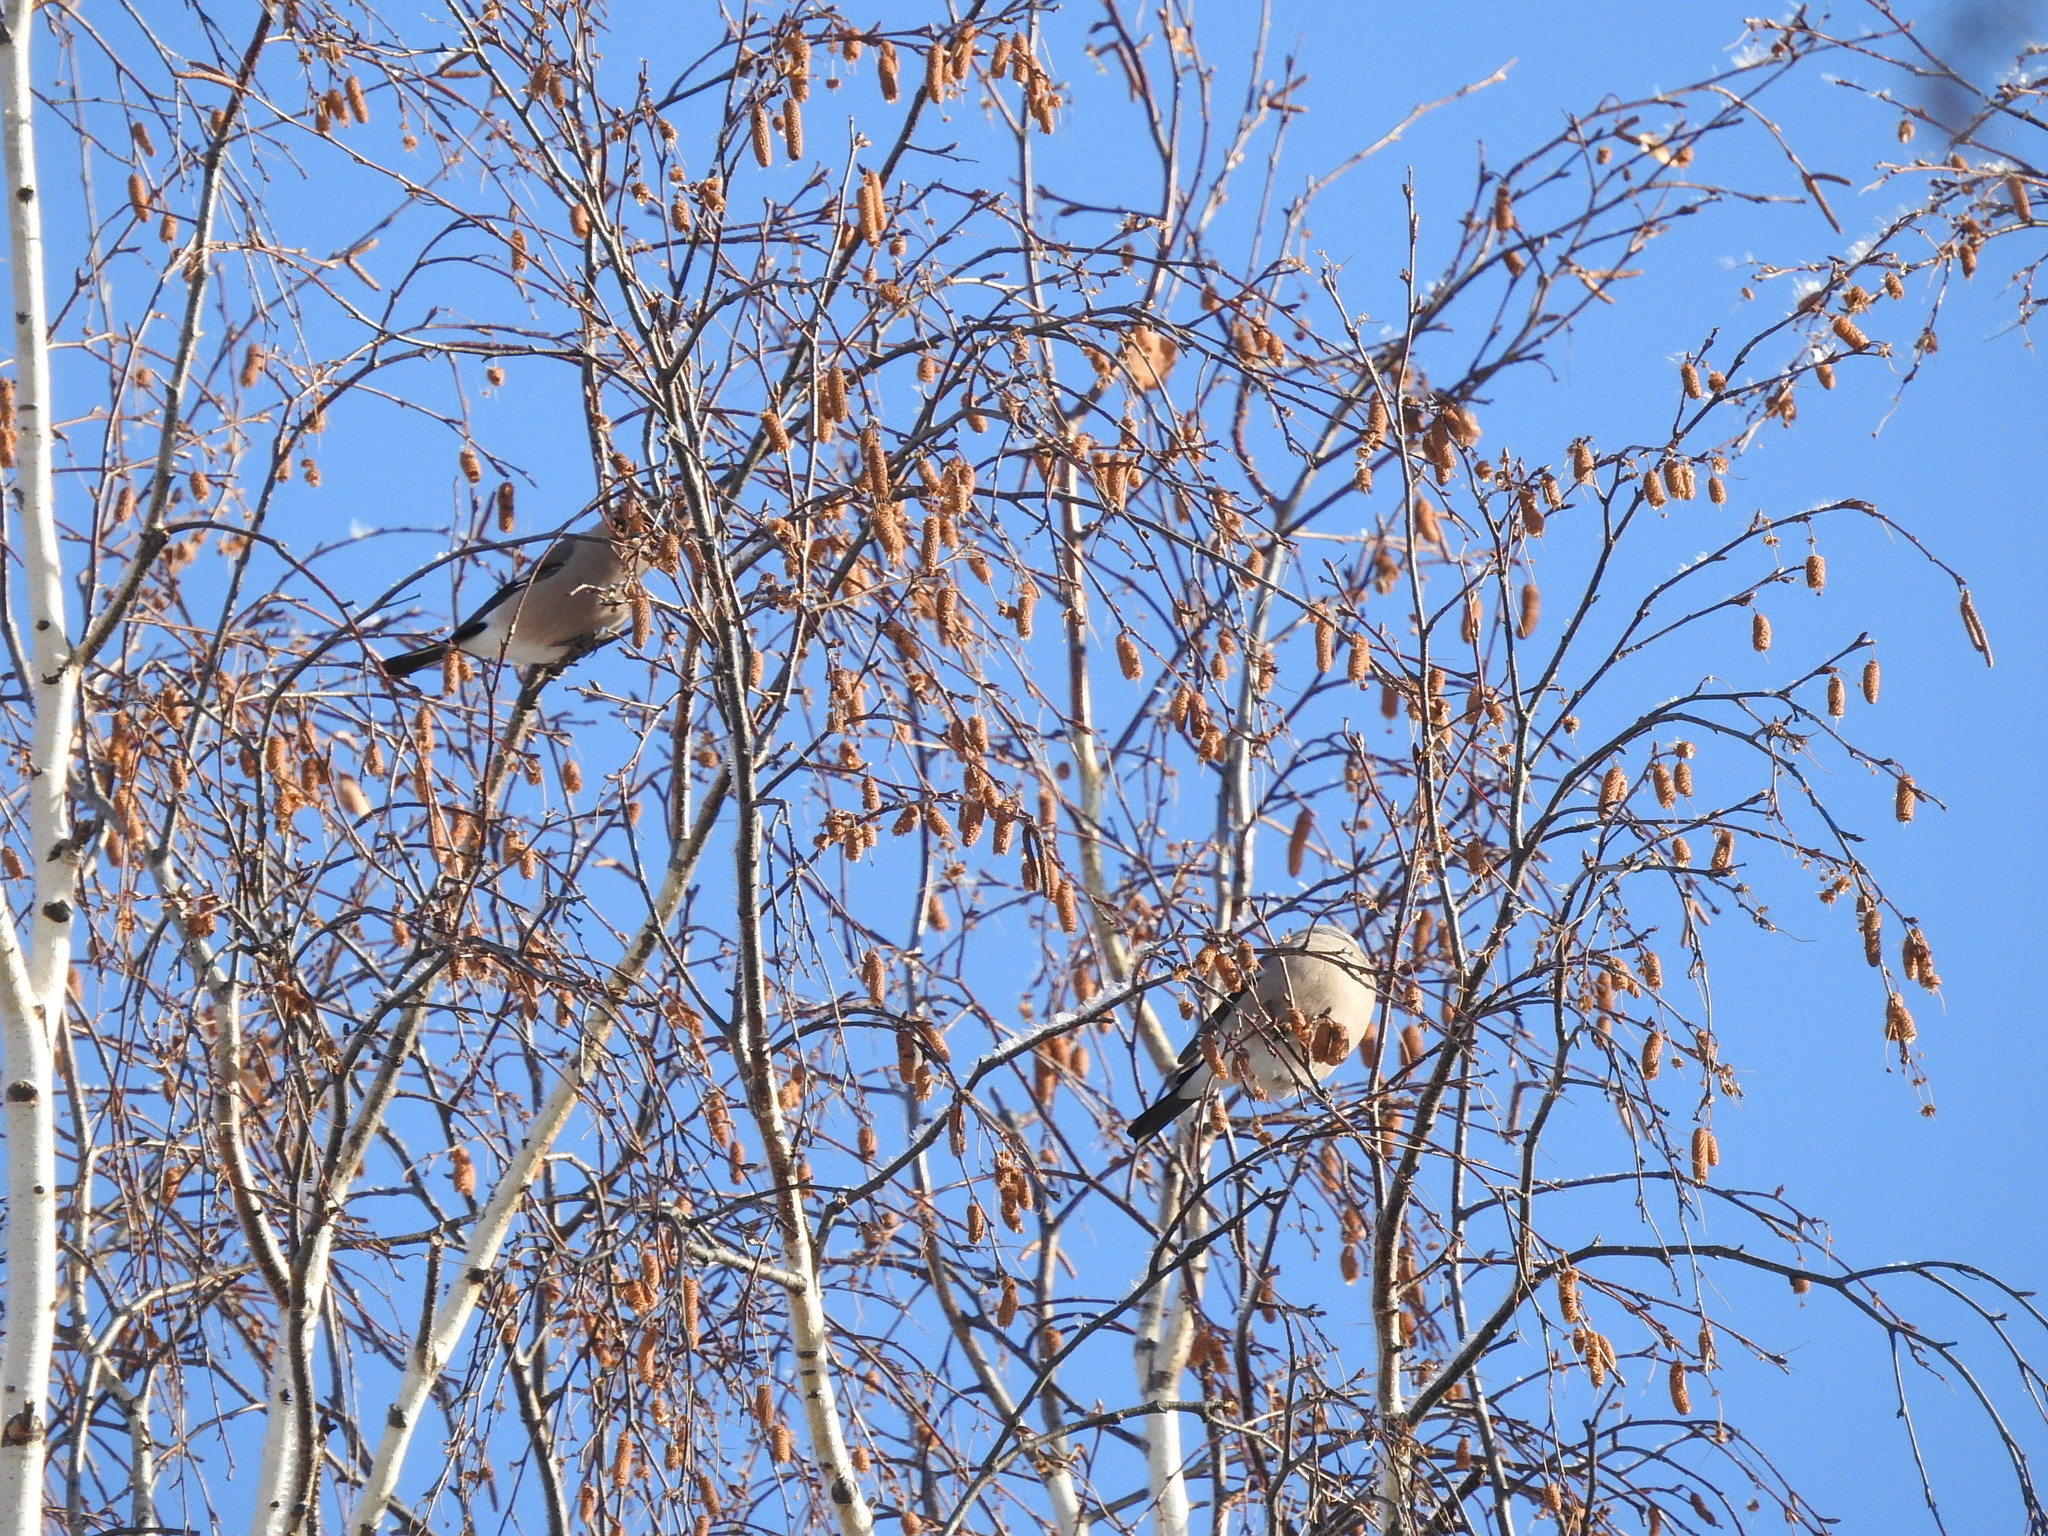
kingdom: Animalia
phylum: Chordata
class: Aves
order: Passeriformes
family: Fringillidae
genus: Pyrrhula
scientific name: Pyrrhula pyrrhula
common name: Eurasian bullfinch
